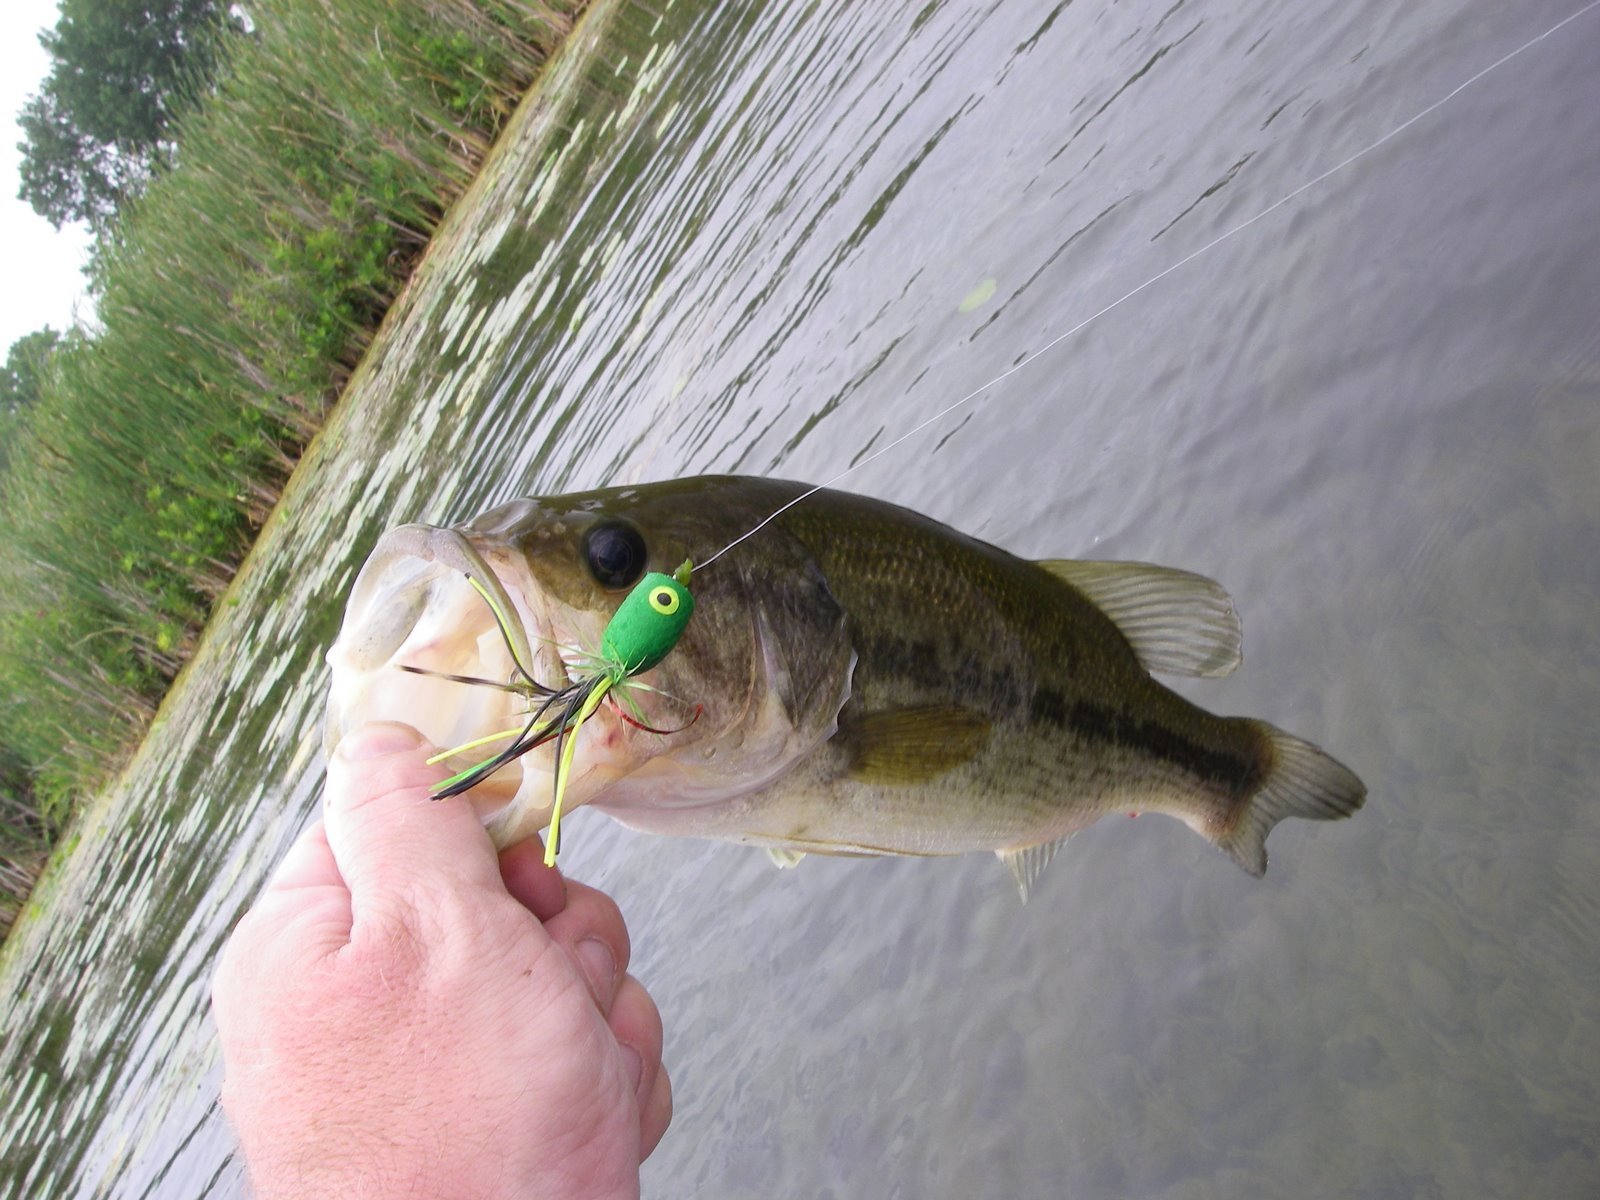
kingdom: Animalia
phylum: Chordata
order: Perciformes
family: Centrarchidae
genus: Micropterus
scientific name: Micropterus
